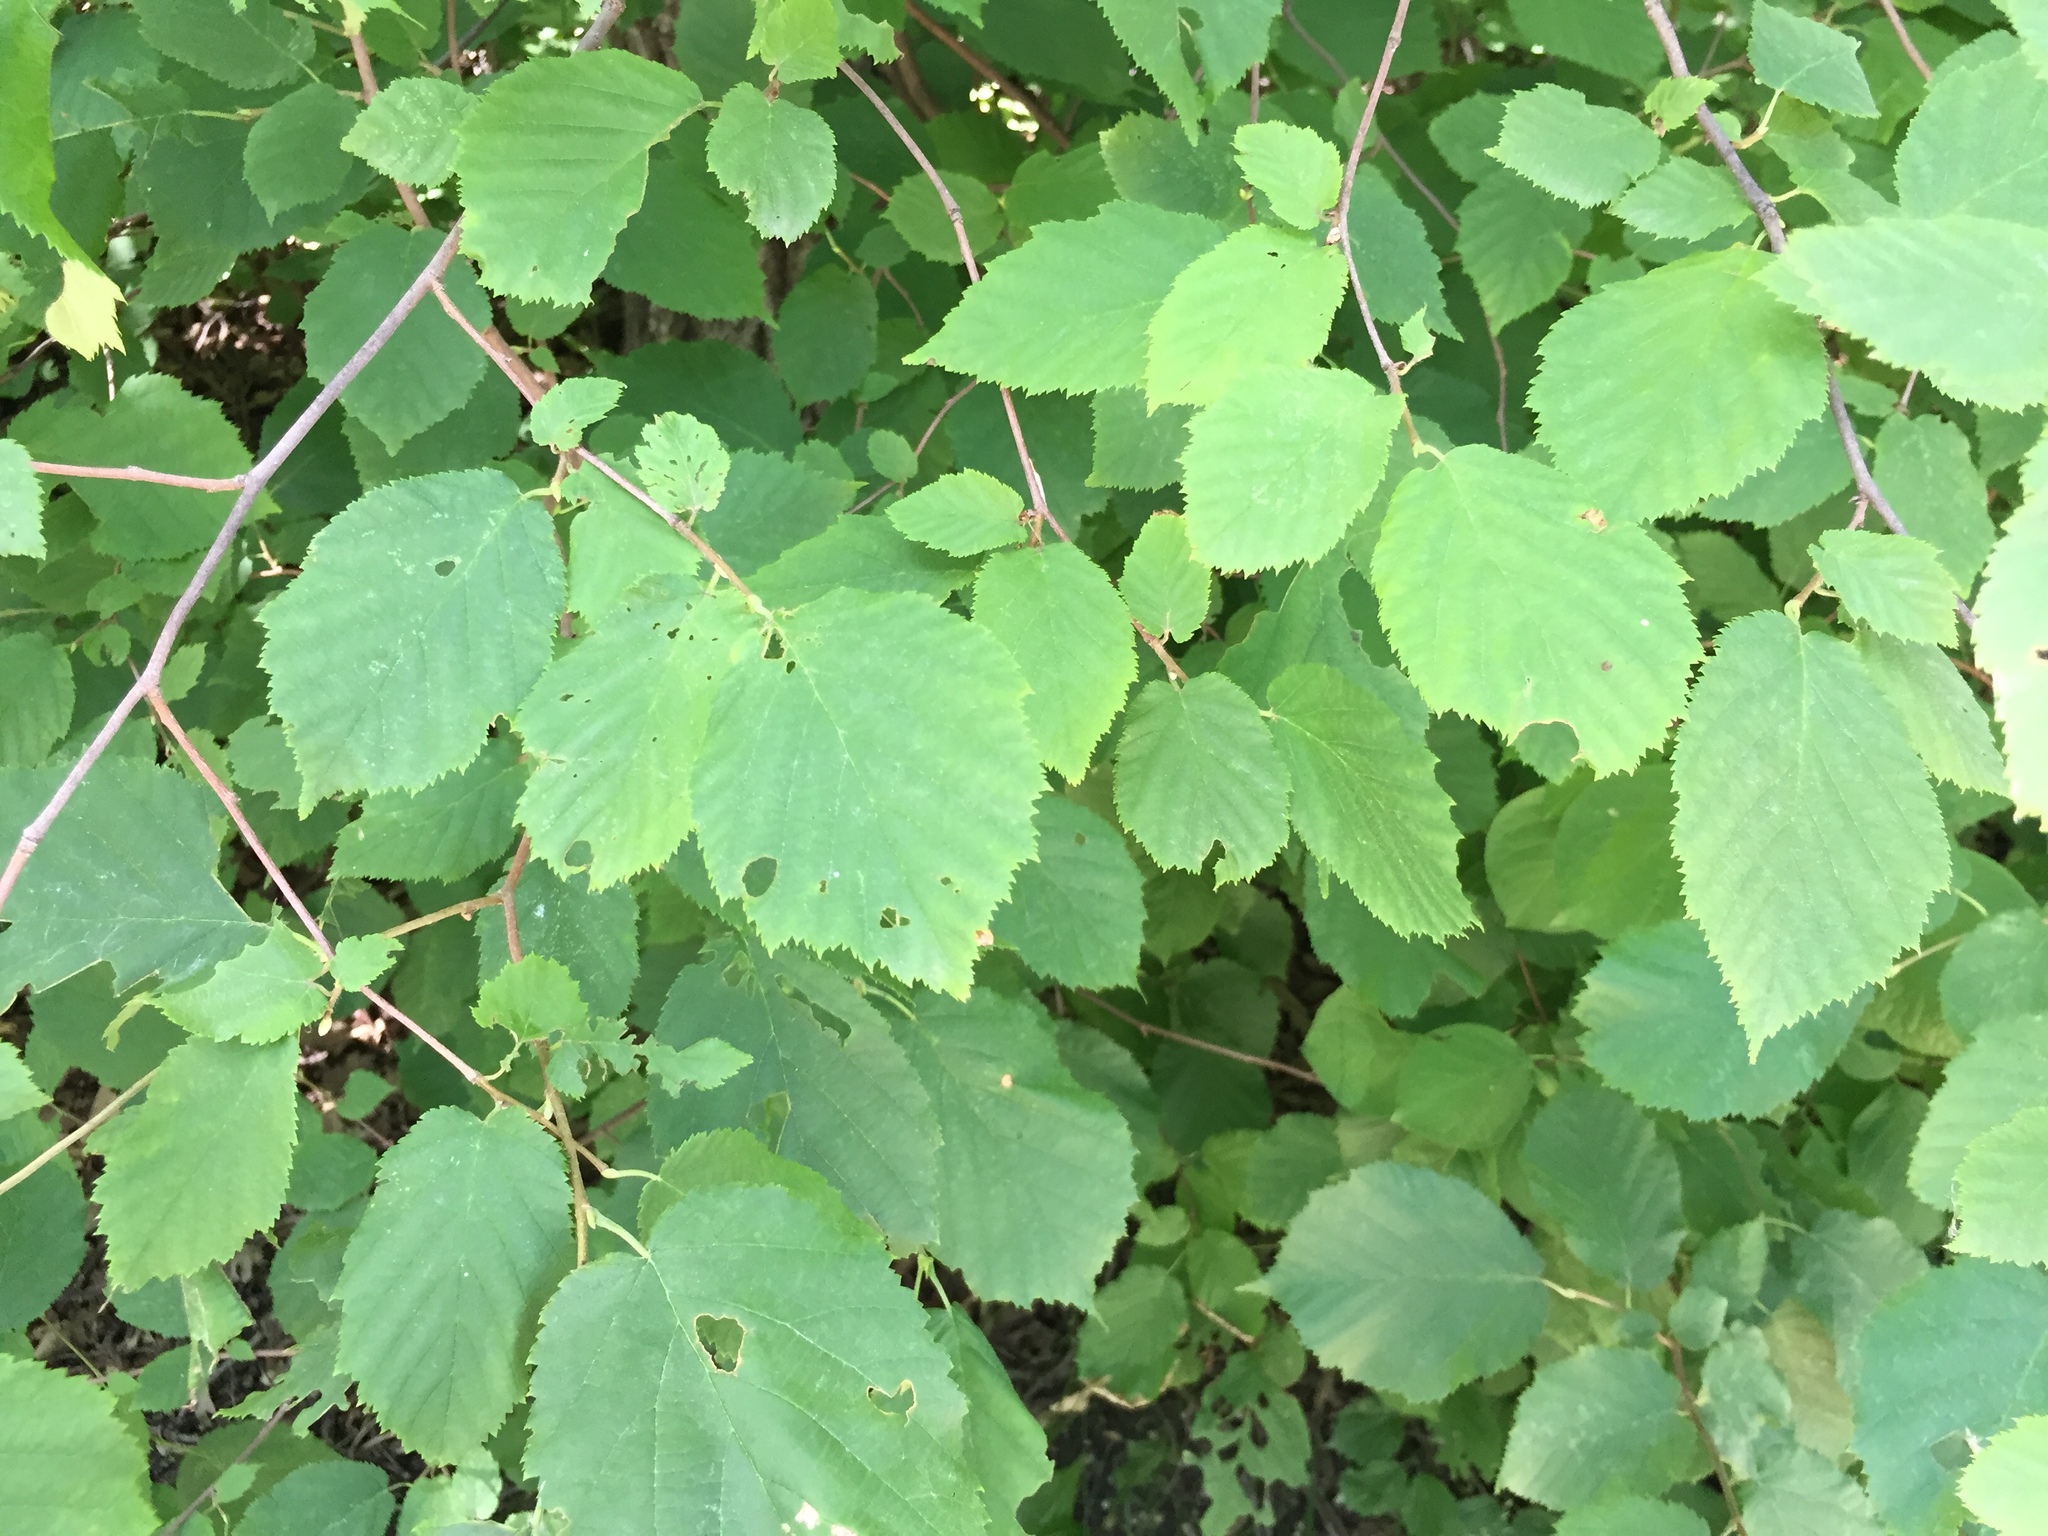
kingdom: Plantae
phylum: Tracheophyta
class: Magnoliopsida
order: Fagales
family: Betulaceae
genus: Corylus
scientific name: Corylus cornuta
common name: Beaked hazel
